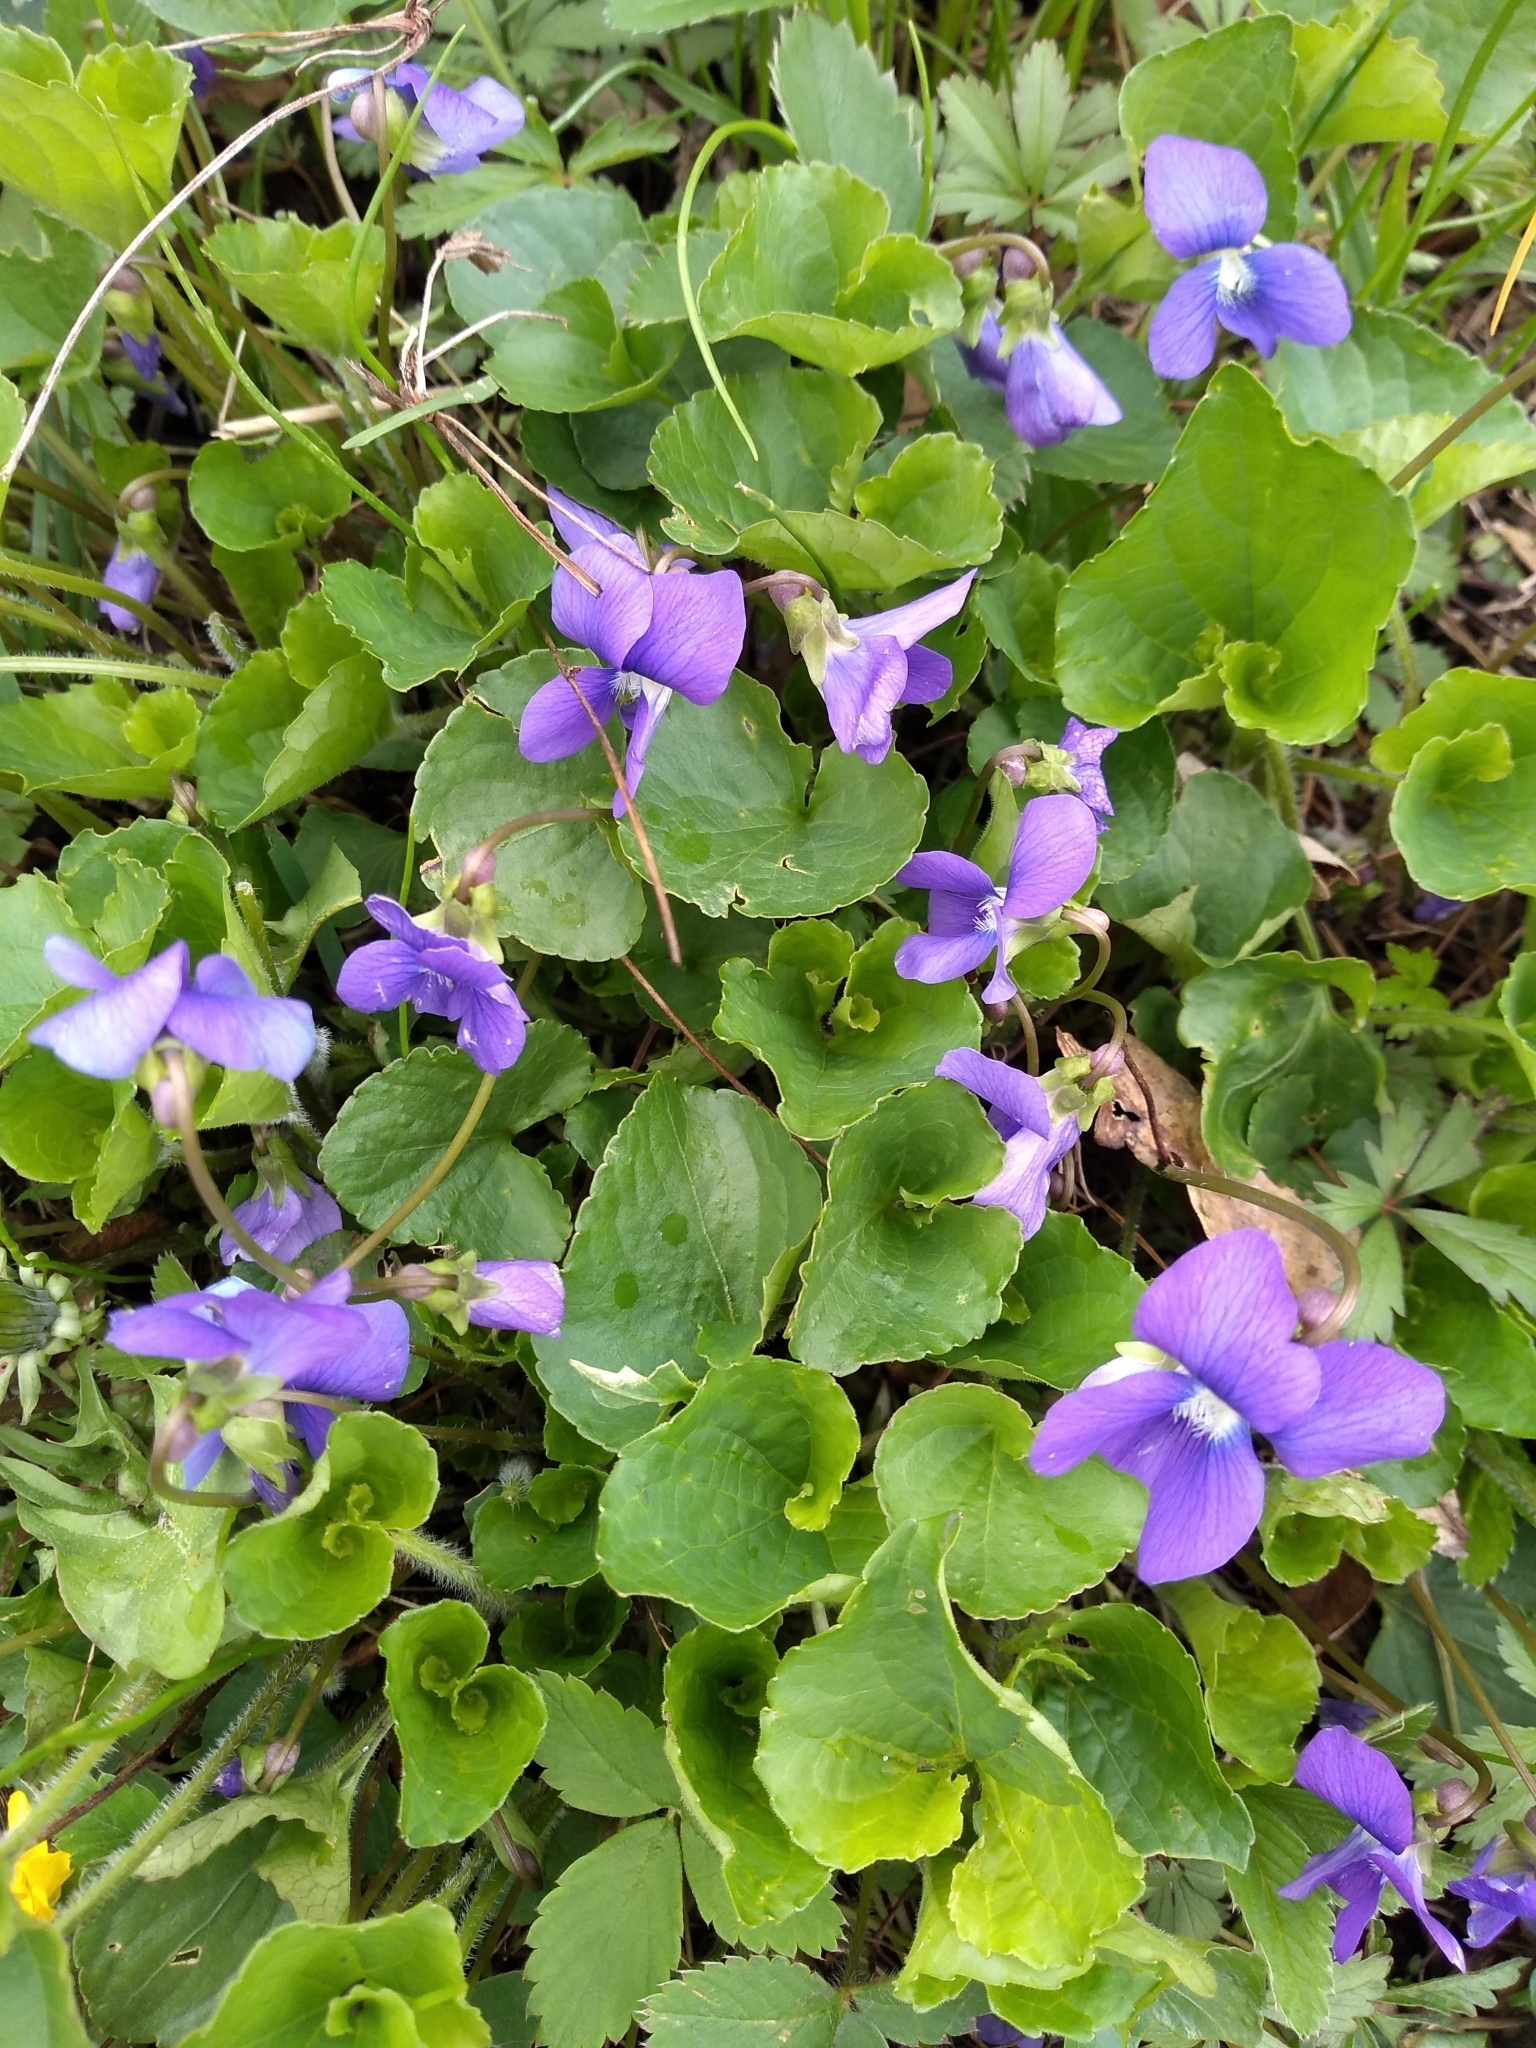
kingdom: Plantae
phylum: Tracheophyta
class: Magnoliopsida
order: Malpighiales
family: Violaceae
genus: Viola
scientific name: Viola sororia
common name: Dooryard violet
